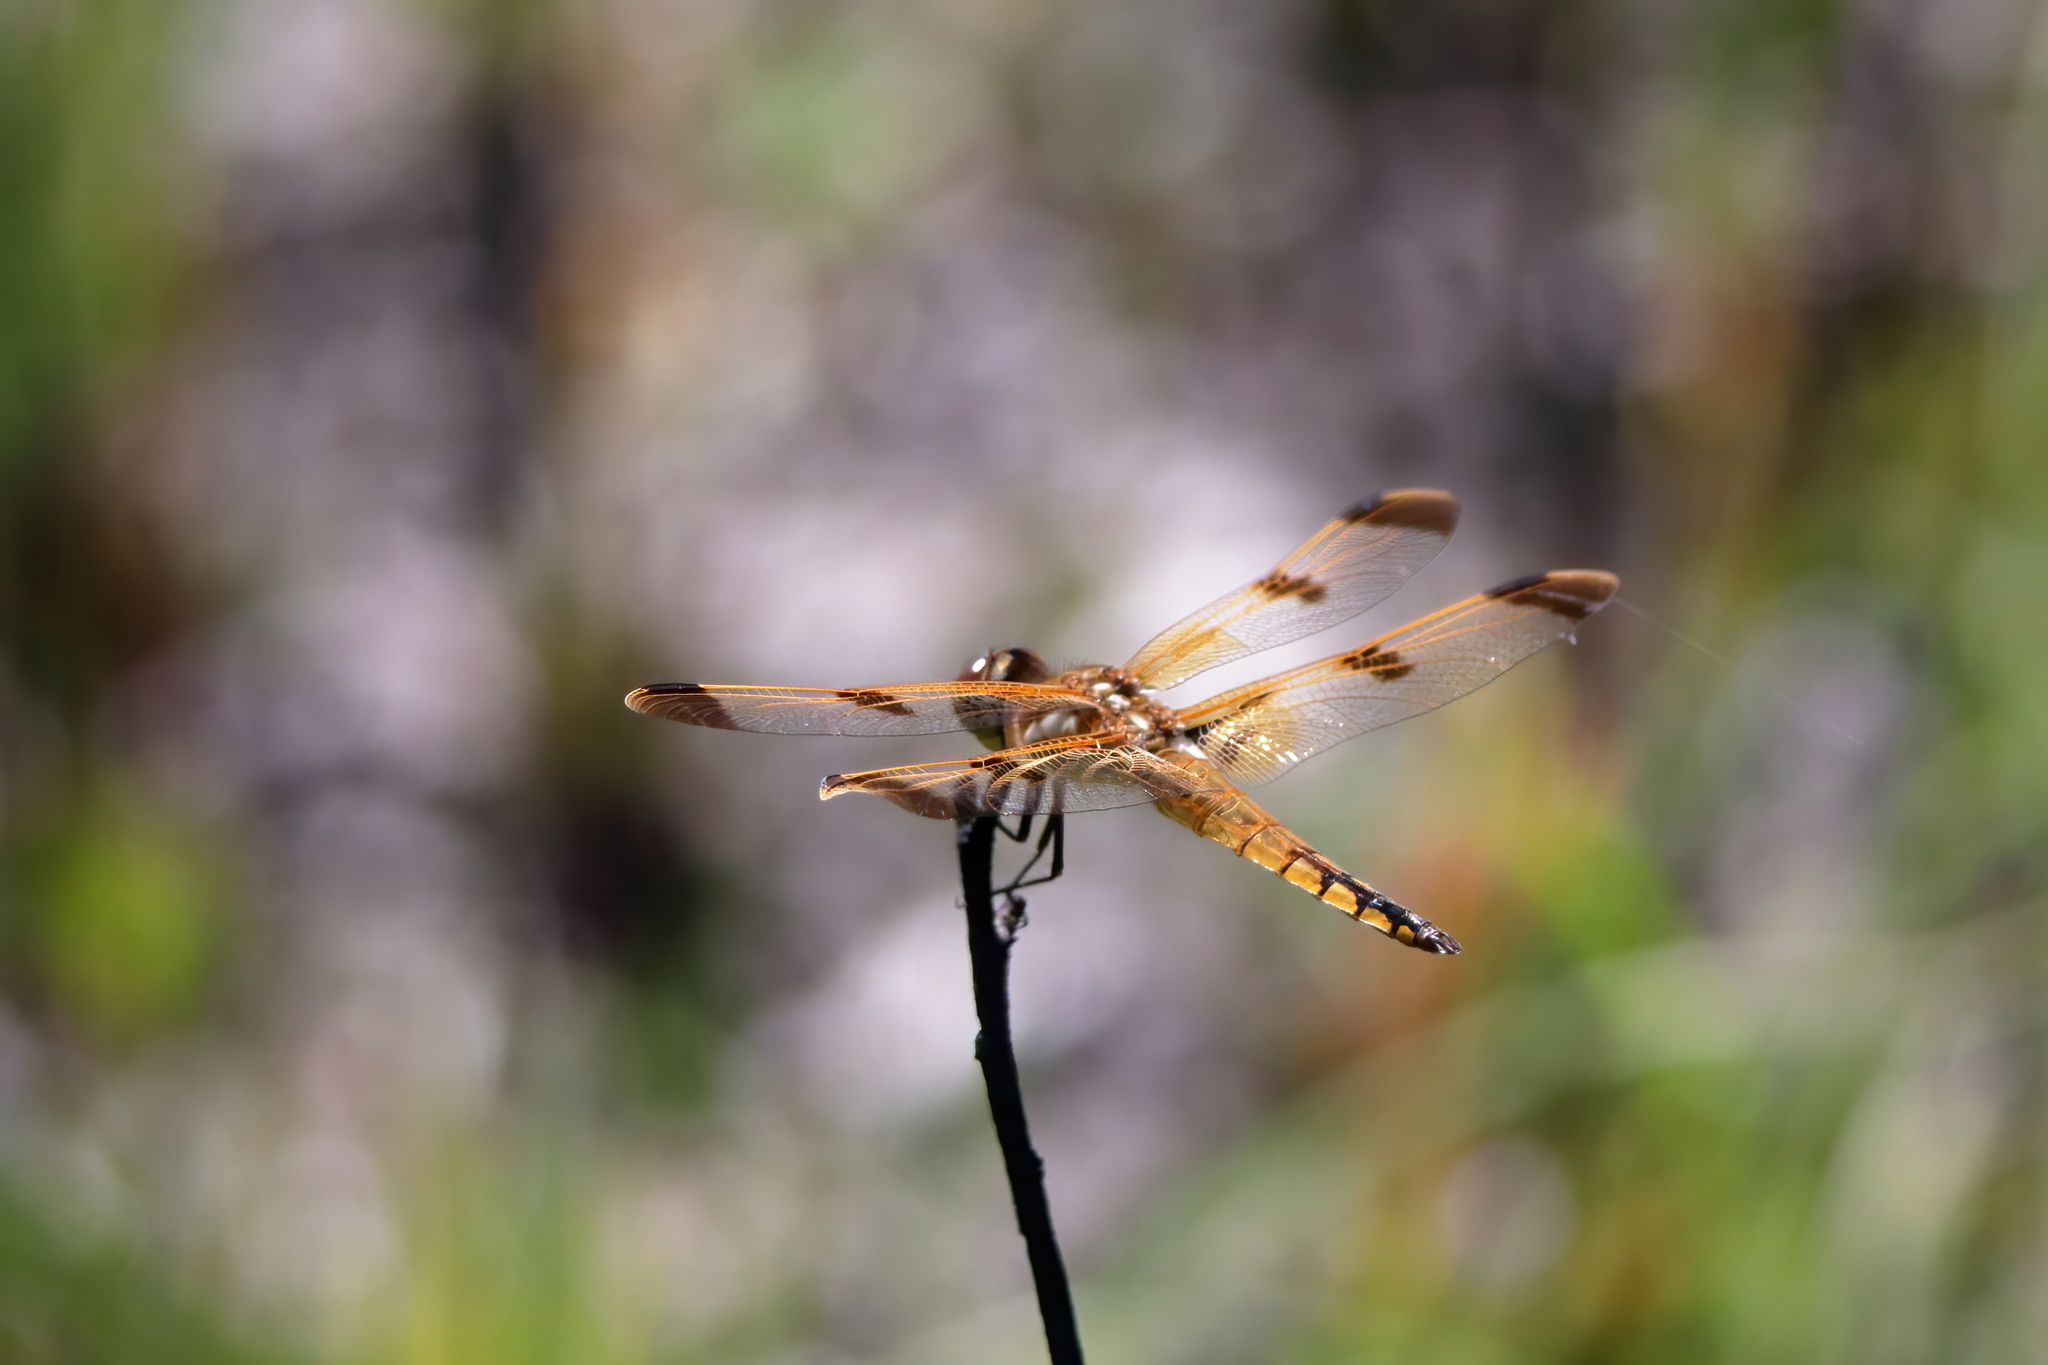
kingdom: Animalia
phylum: Arthropoda
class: Insecta
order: Odonata
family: Libellulidae
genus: Libellula
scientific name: Libellula semifasciata
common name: Painted skimmer
